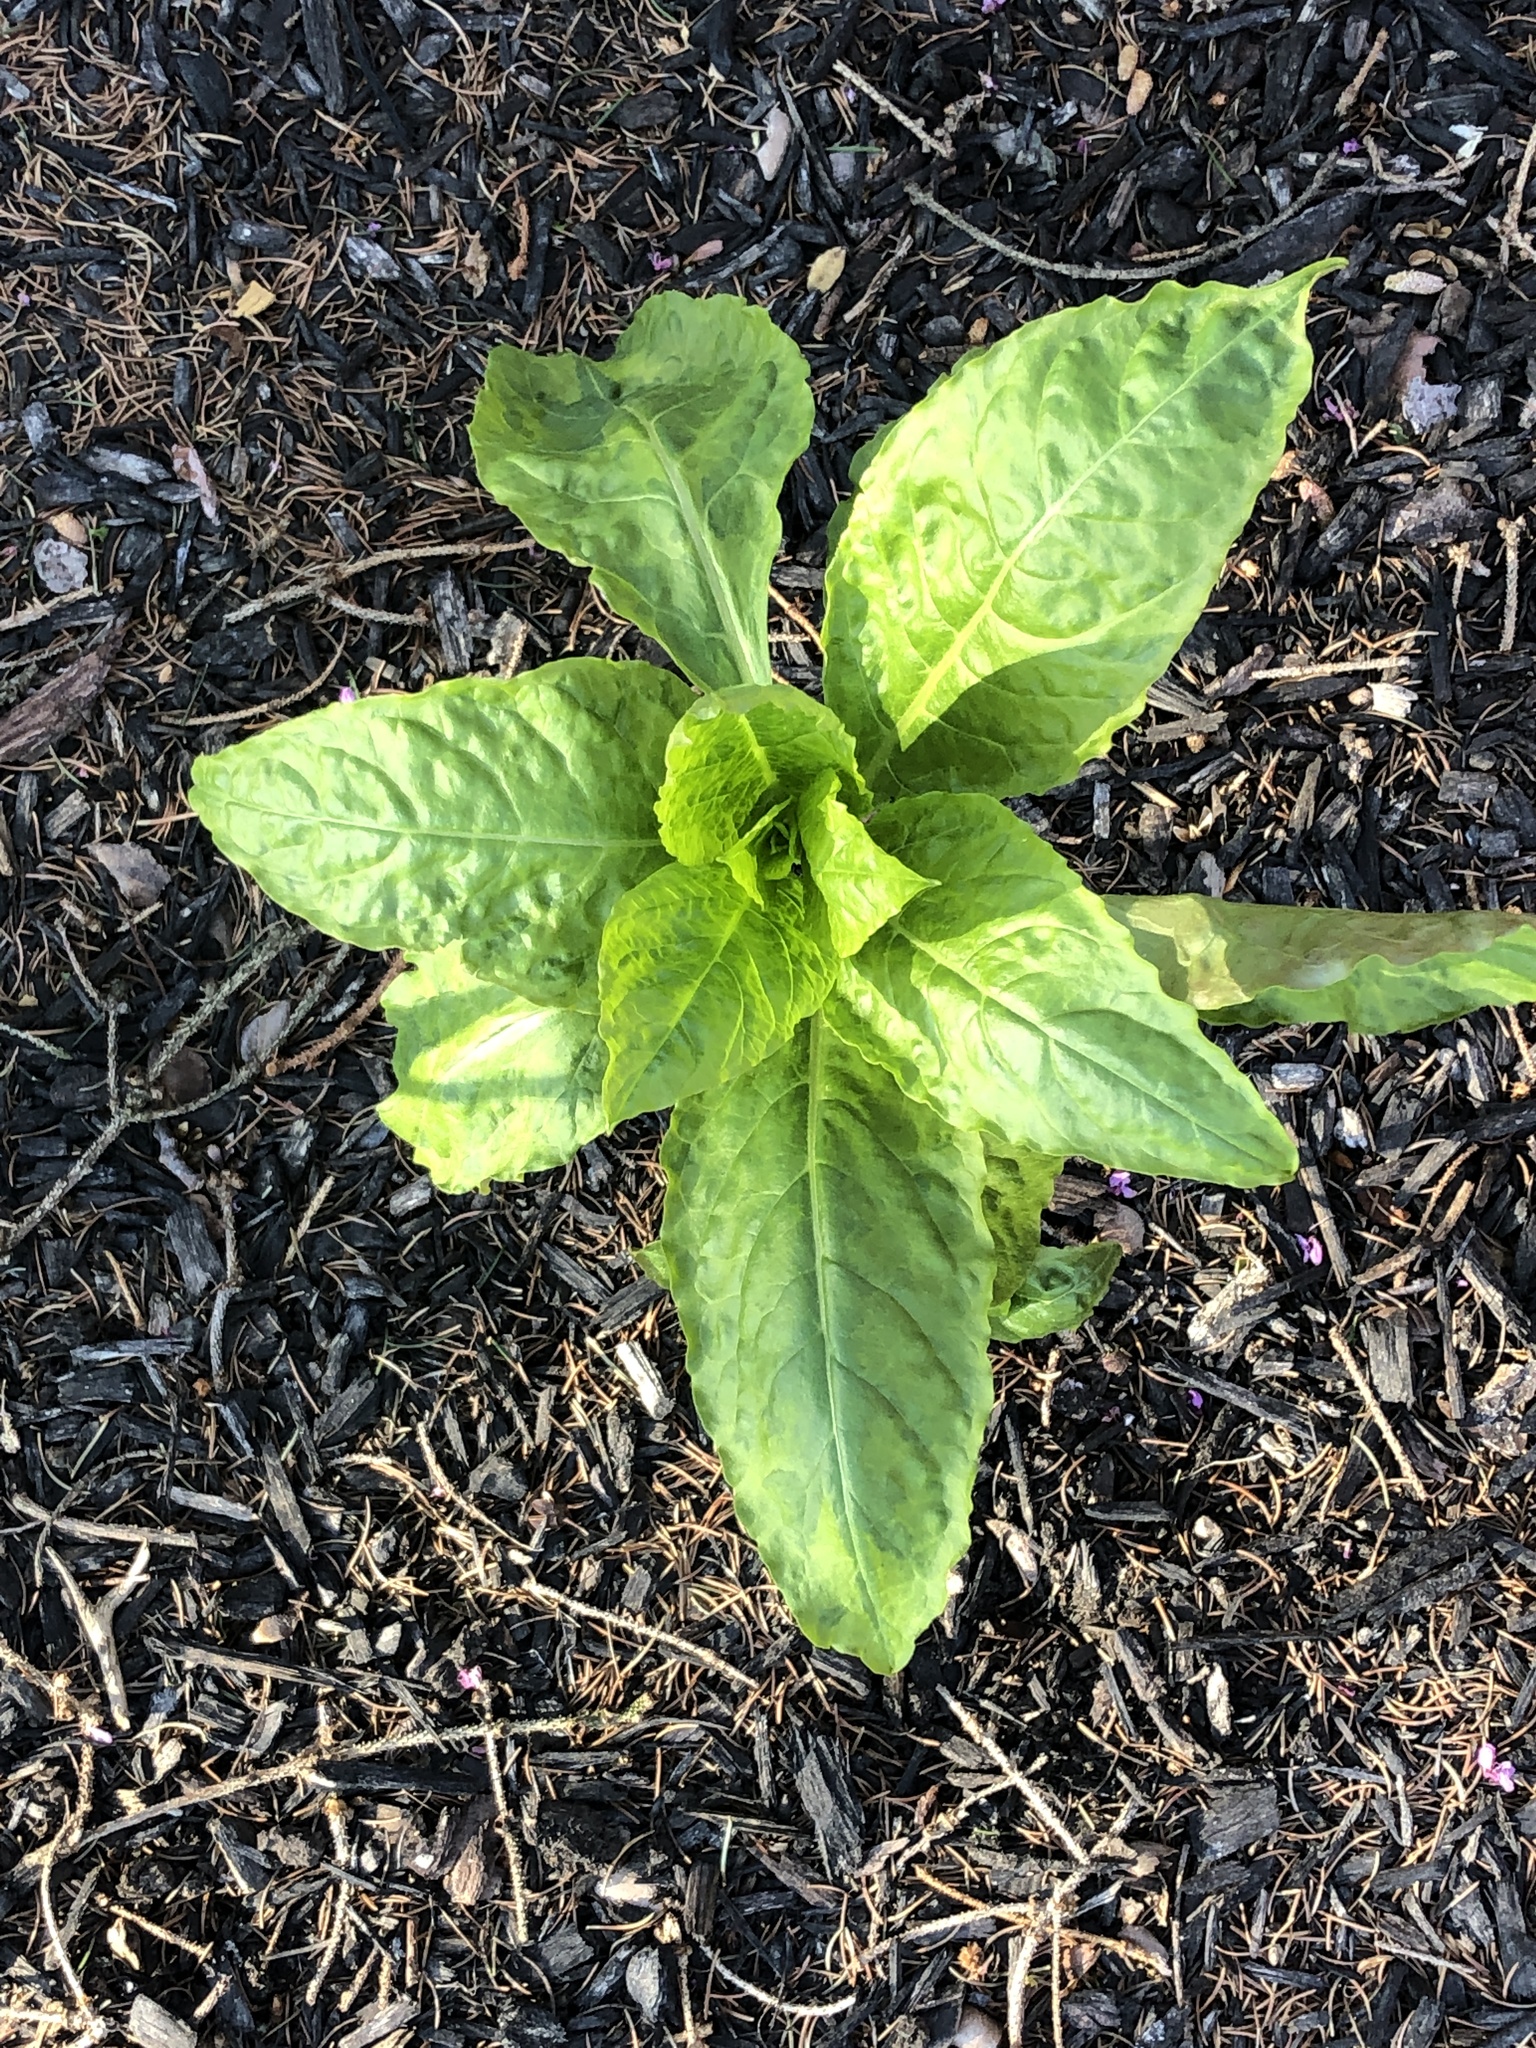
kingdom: Plantae
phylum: Tracheophyta
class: Magnoliopsida
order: Caryophyllales
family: Phytolaccaceae
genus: Phytolacca
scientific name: Phytolacca americana
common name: American pokeweed
